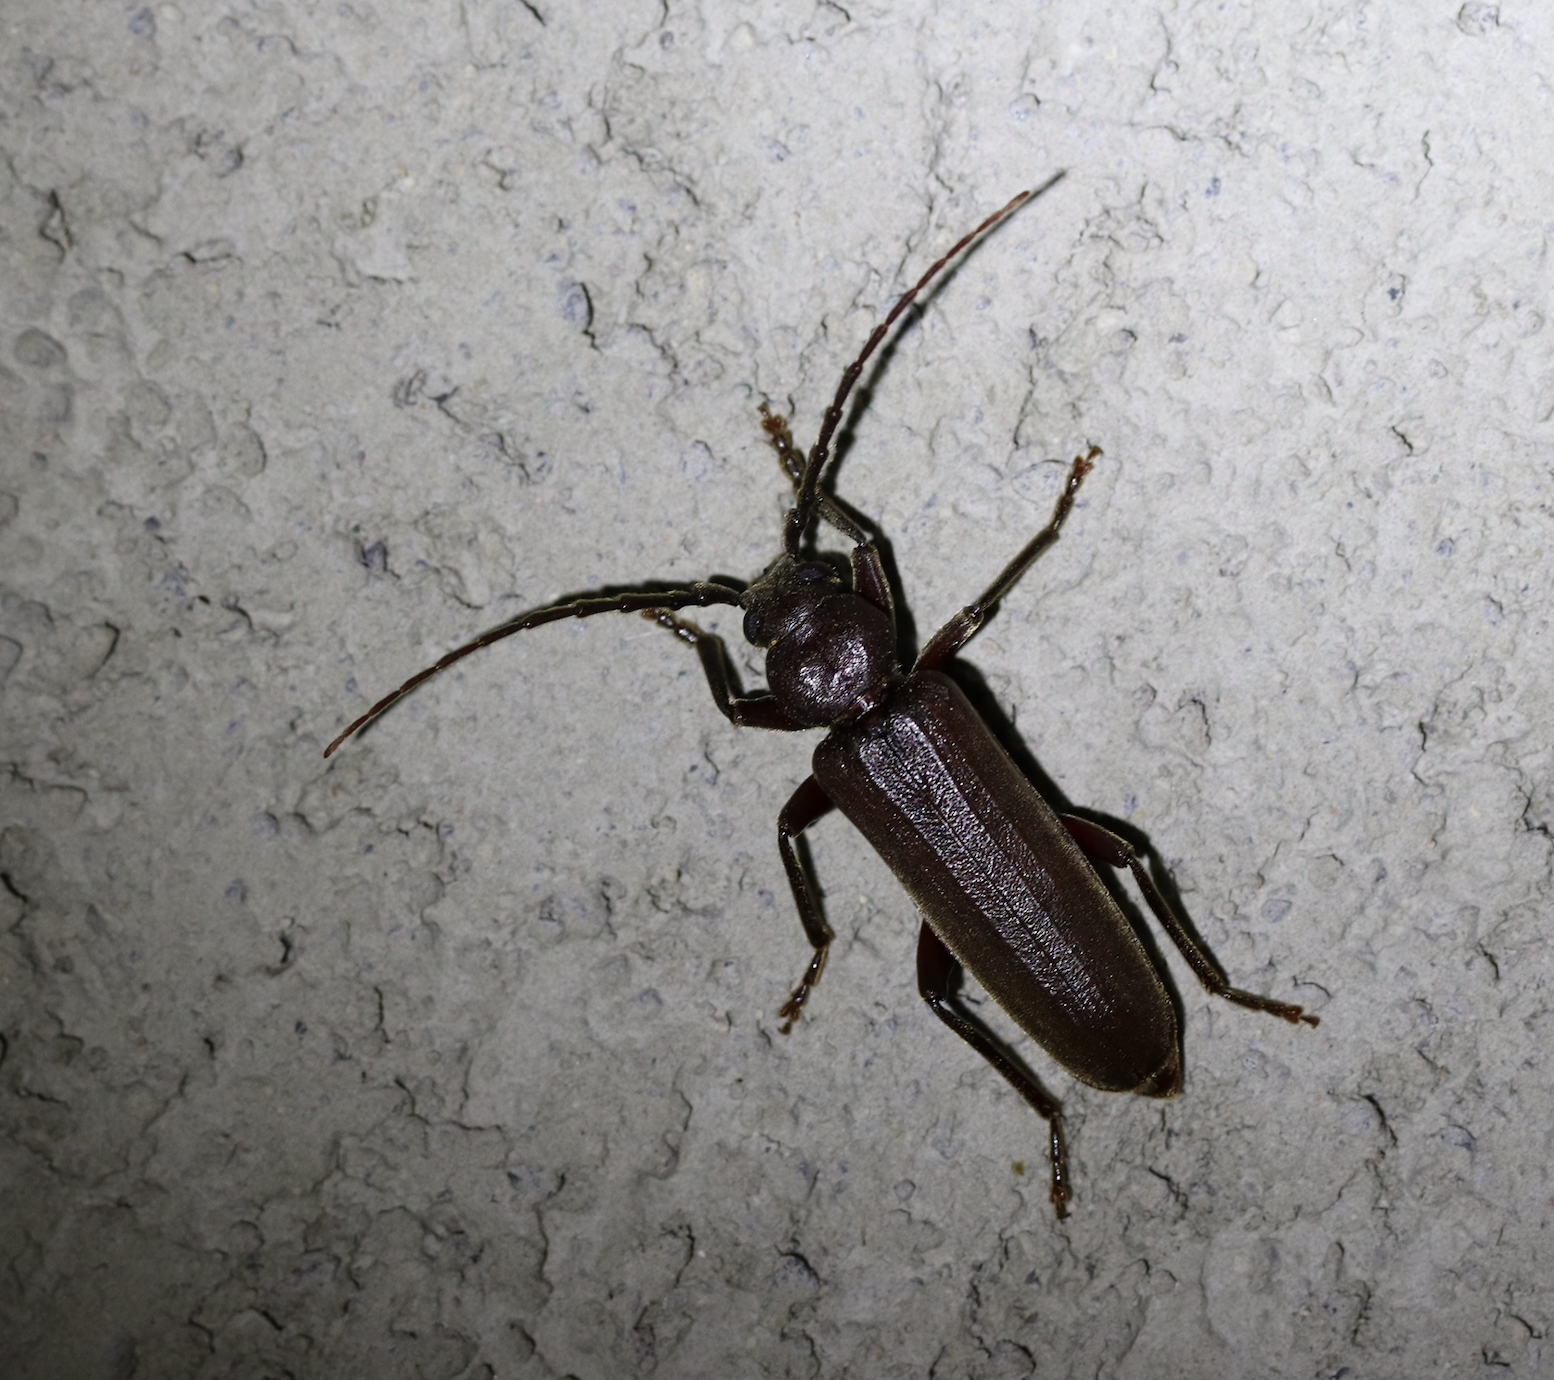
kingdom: Animalia
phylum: Arthropoda
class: Insecta
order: Coleoptera
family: Cerambycidae
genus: Arhopalus
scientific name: Arhopalus rusticus
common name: Rust pine borer
